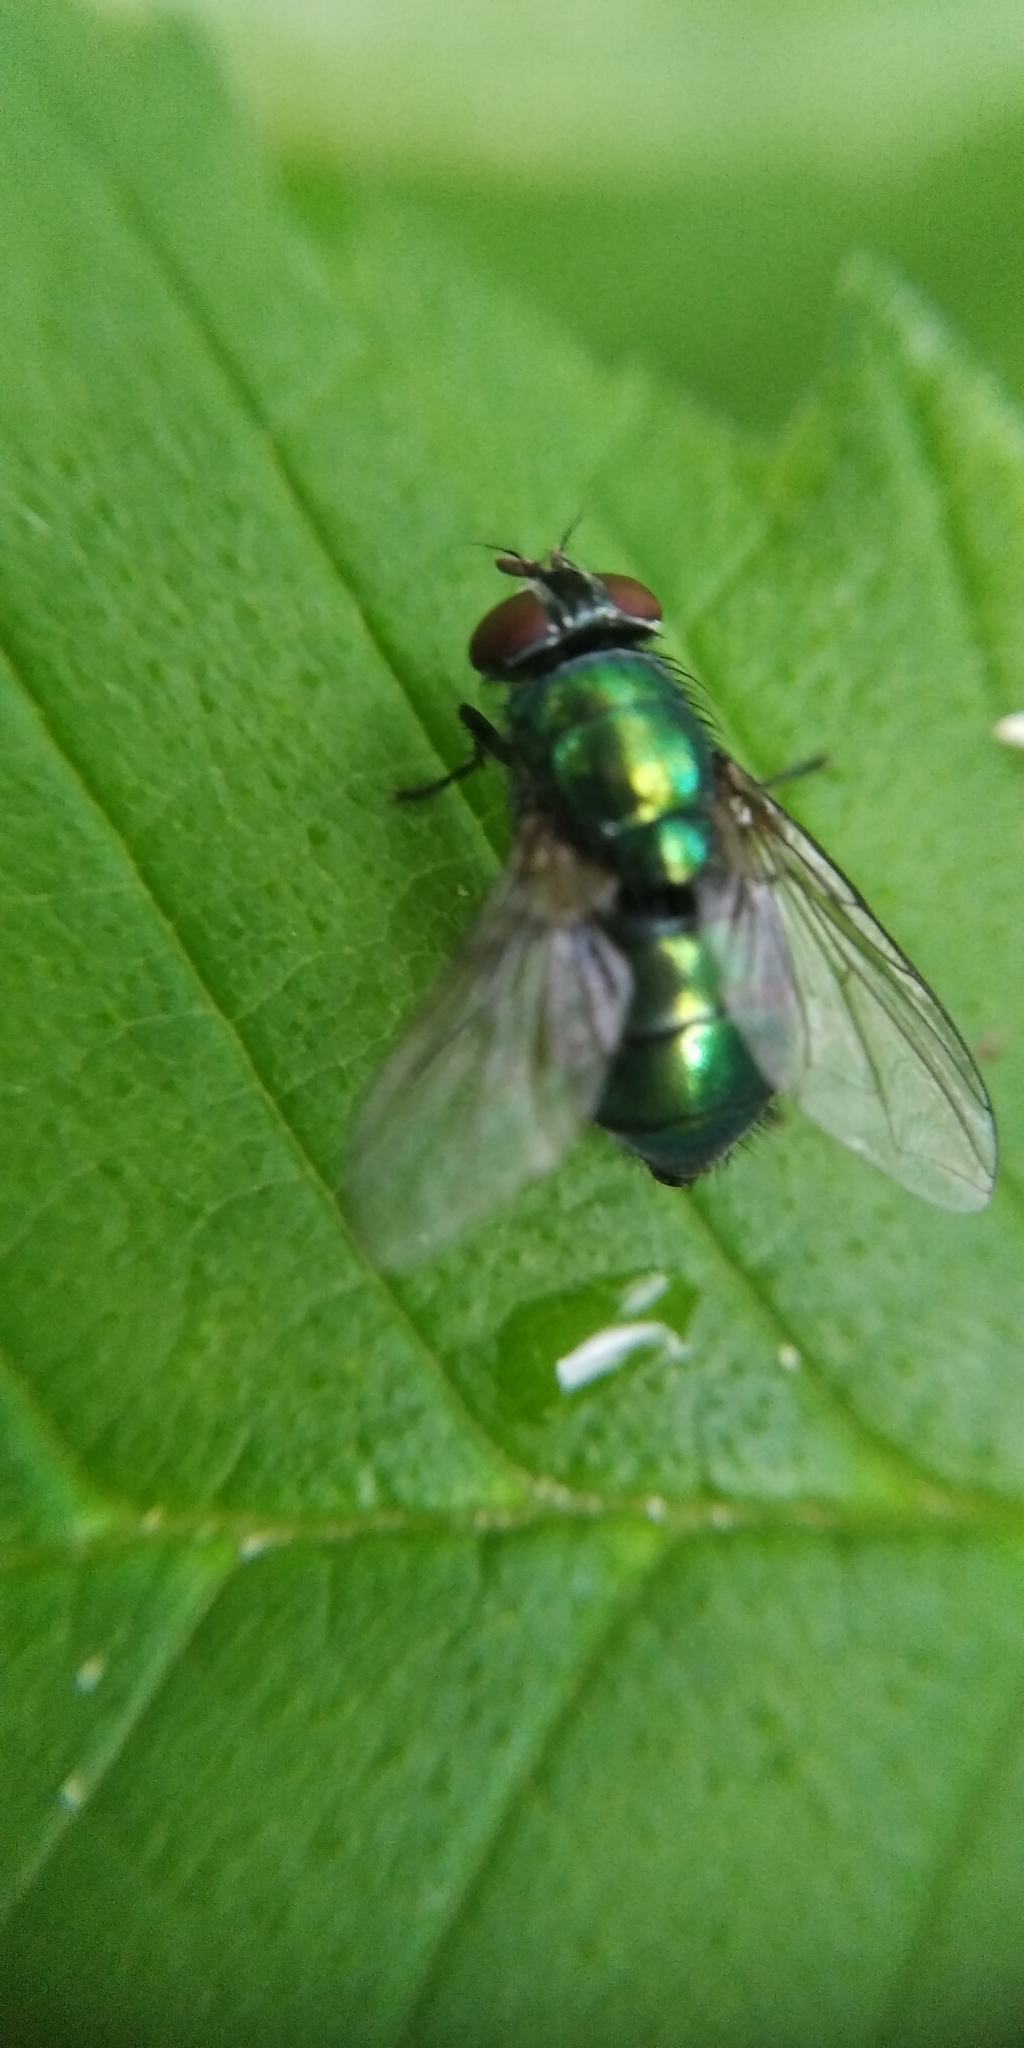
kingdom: Animalia
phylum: Arthropoda
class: Insecta
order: Diptera
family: Calliphoridae
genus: Lucilia
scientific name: Lucilia caesar
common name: Blow fly
